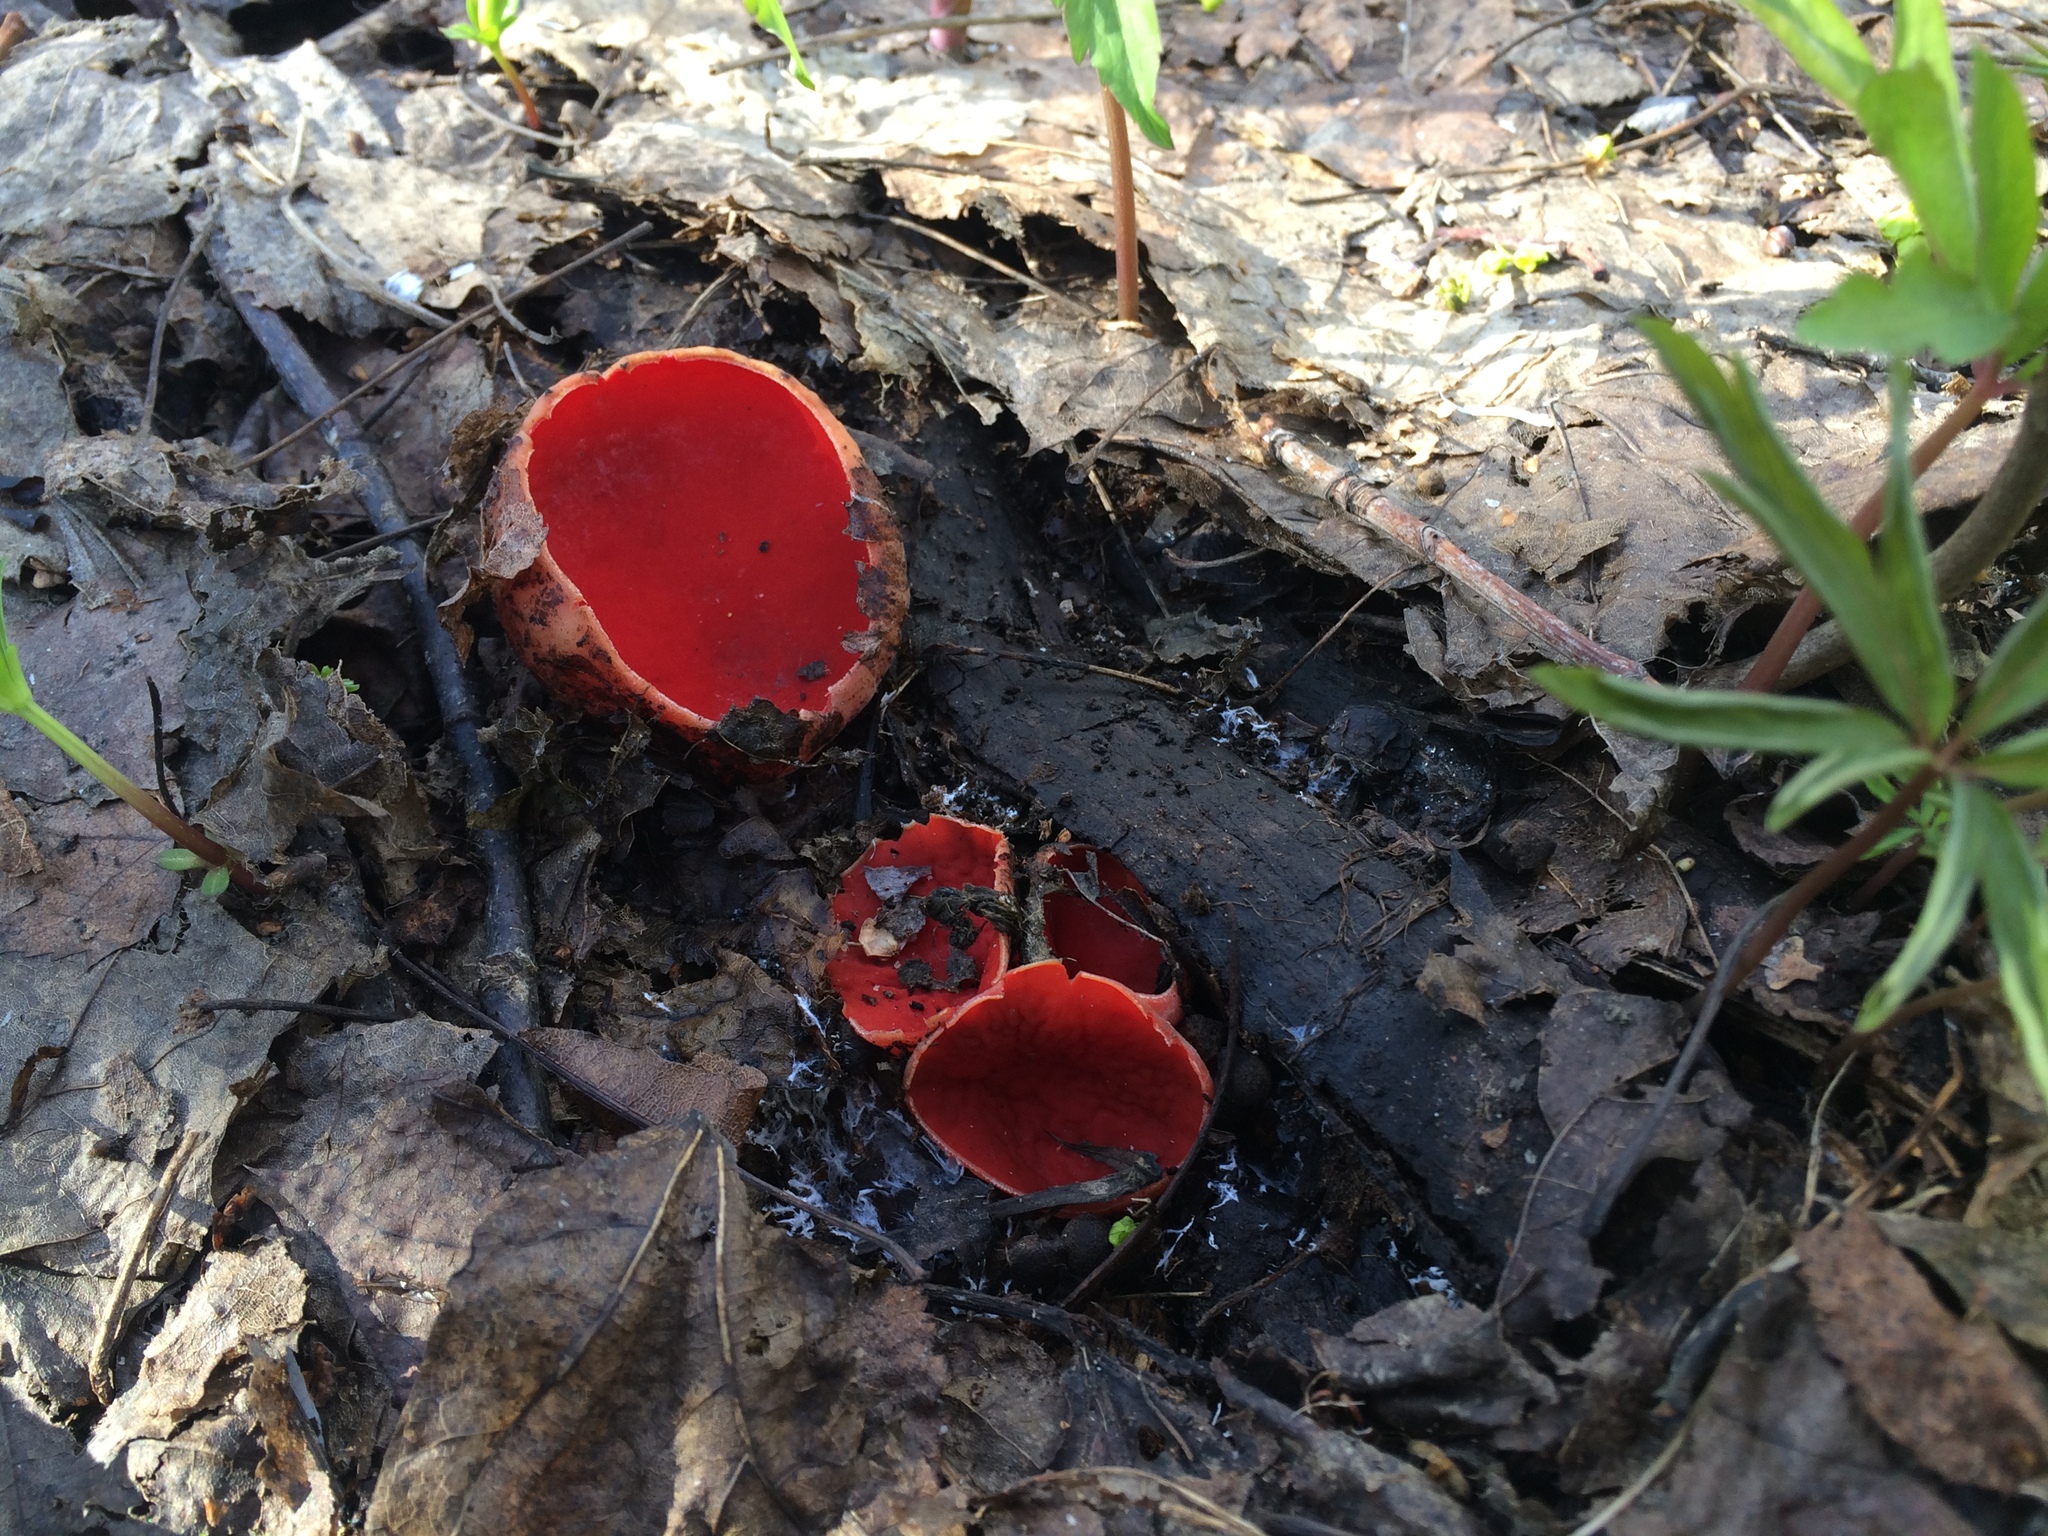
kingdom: Fungi
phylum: Ascomycota
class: Pezizomycetes
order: Pezizales
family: Sarcoscyphaceae
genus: Sarcoscypha
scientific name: Sarcoscypha
